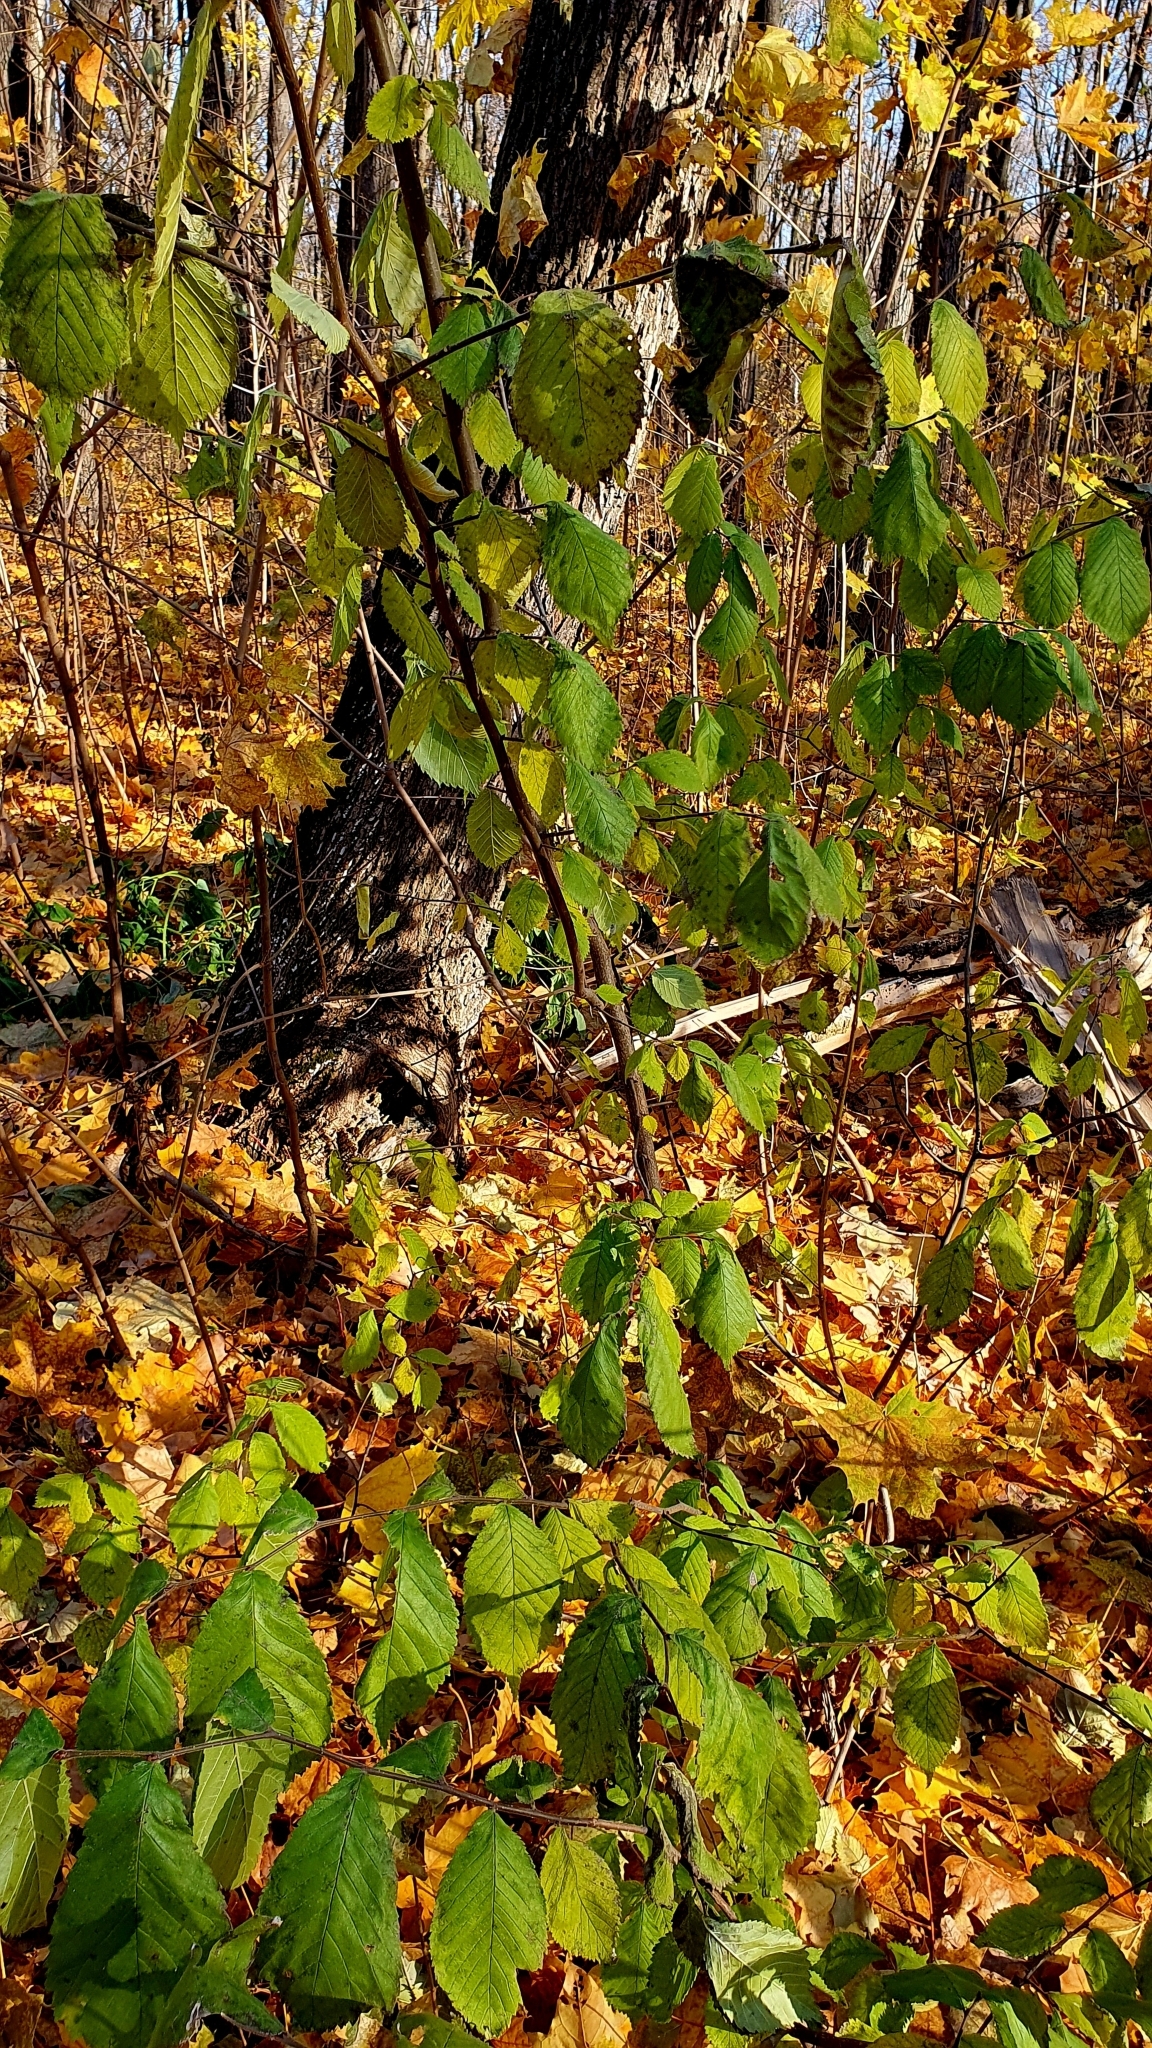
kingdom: Plantae
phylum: Tracheophyta
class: Magnoliopsida
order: Rosales
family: Ulmaceae
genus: Ulmus
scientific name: Ulmus glabra
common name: Wych elm
